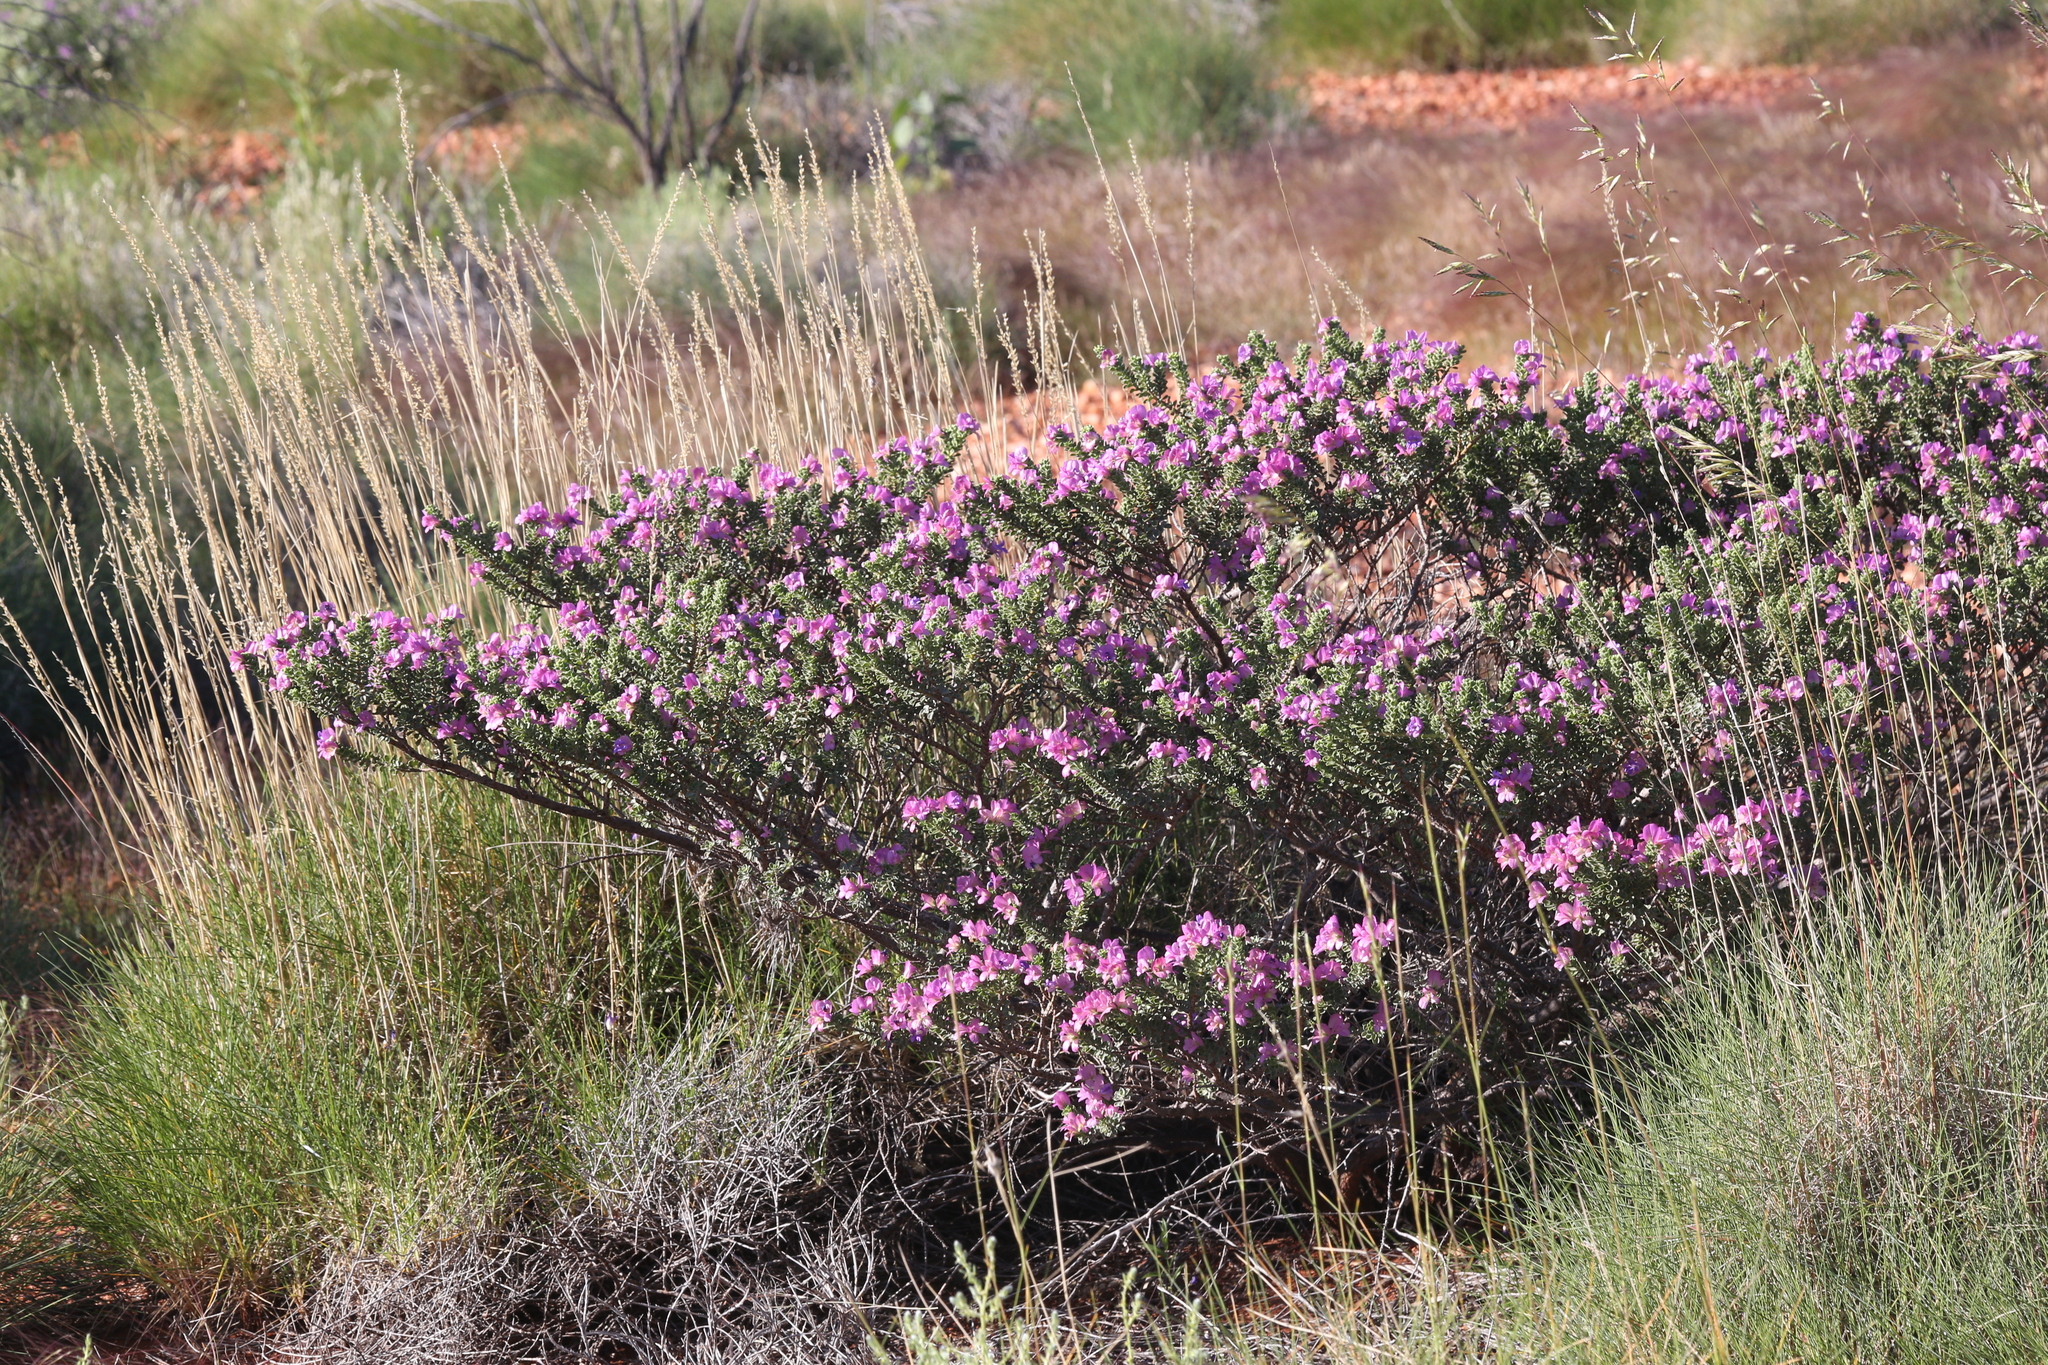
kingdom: Plantae
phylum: Tracheophyta
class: Magnoliopsida
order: Lamiales
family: Scrophulariaceae
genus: Eremophila
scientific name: Eremophila cuneifolia
